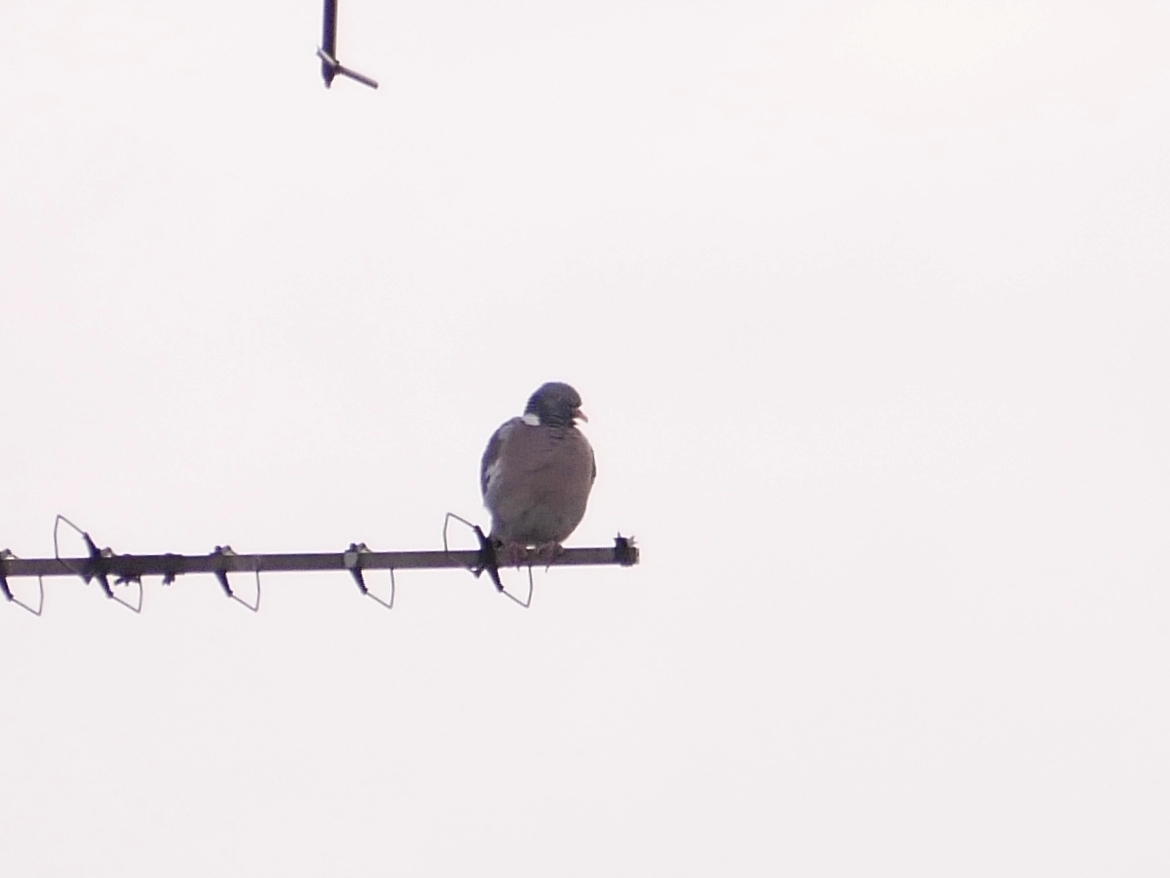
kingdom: Animalia
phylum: Chordata
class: Aves
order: Columbiformes
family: Columbidae
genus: Columba
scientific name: Columba palumbus
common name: Common wood pigeon
